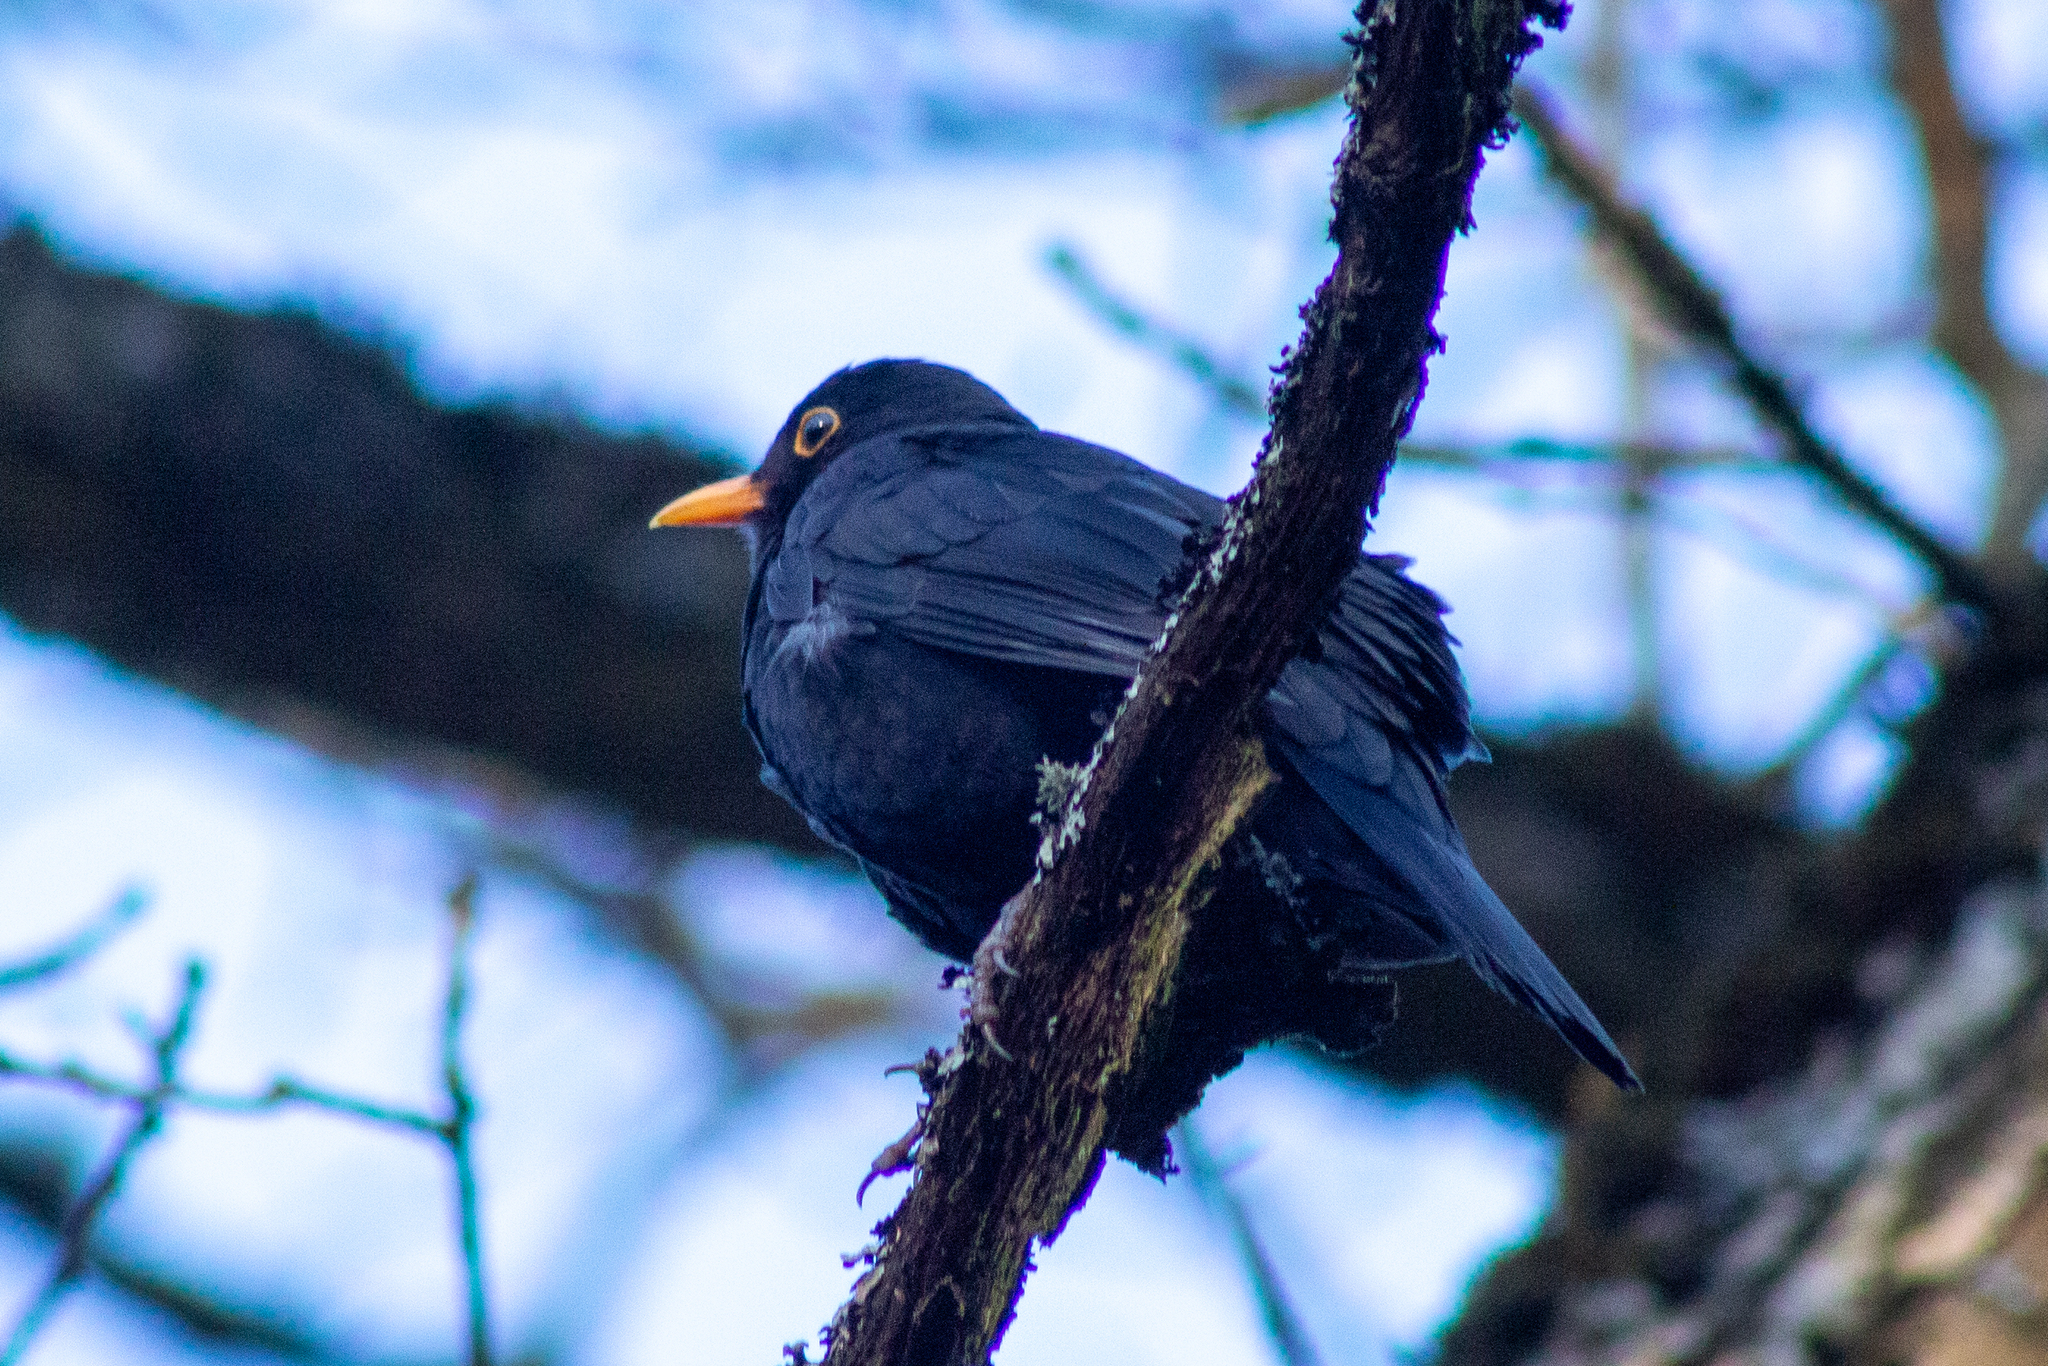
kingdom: Animalia
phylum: Chordata
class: Aves
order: Passeriformes
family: Turdidae
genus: Turdus
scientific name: Turdus merula
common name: Common blackbird
